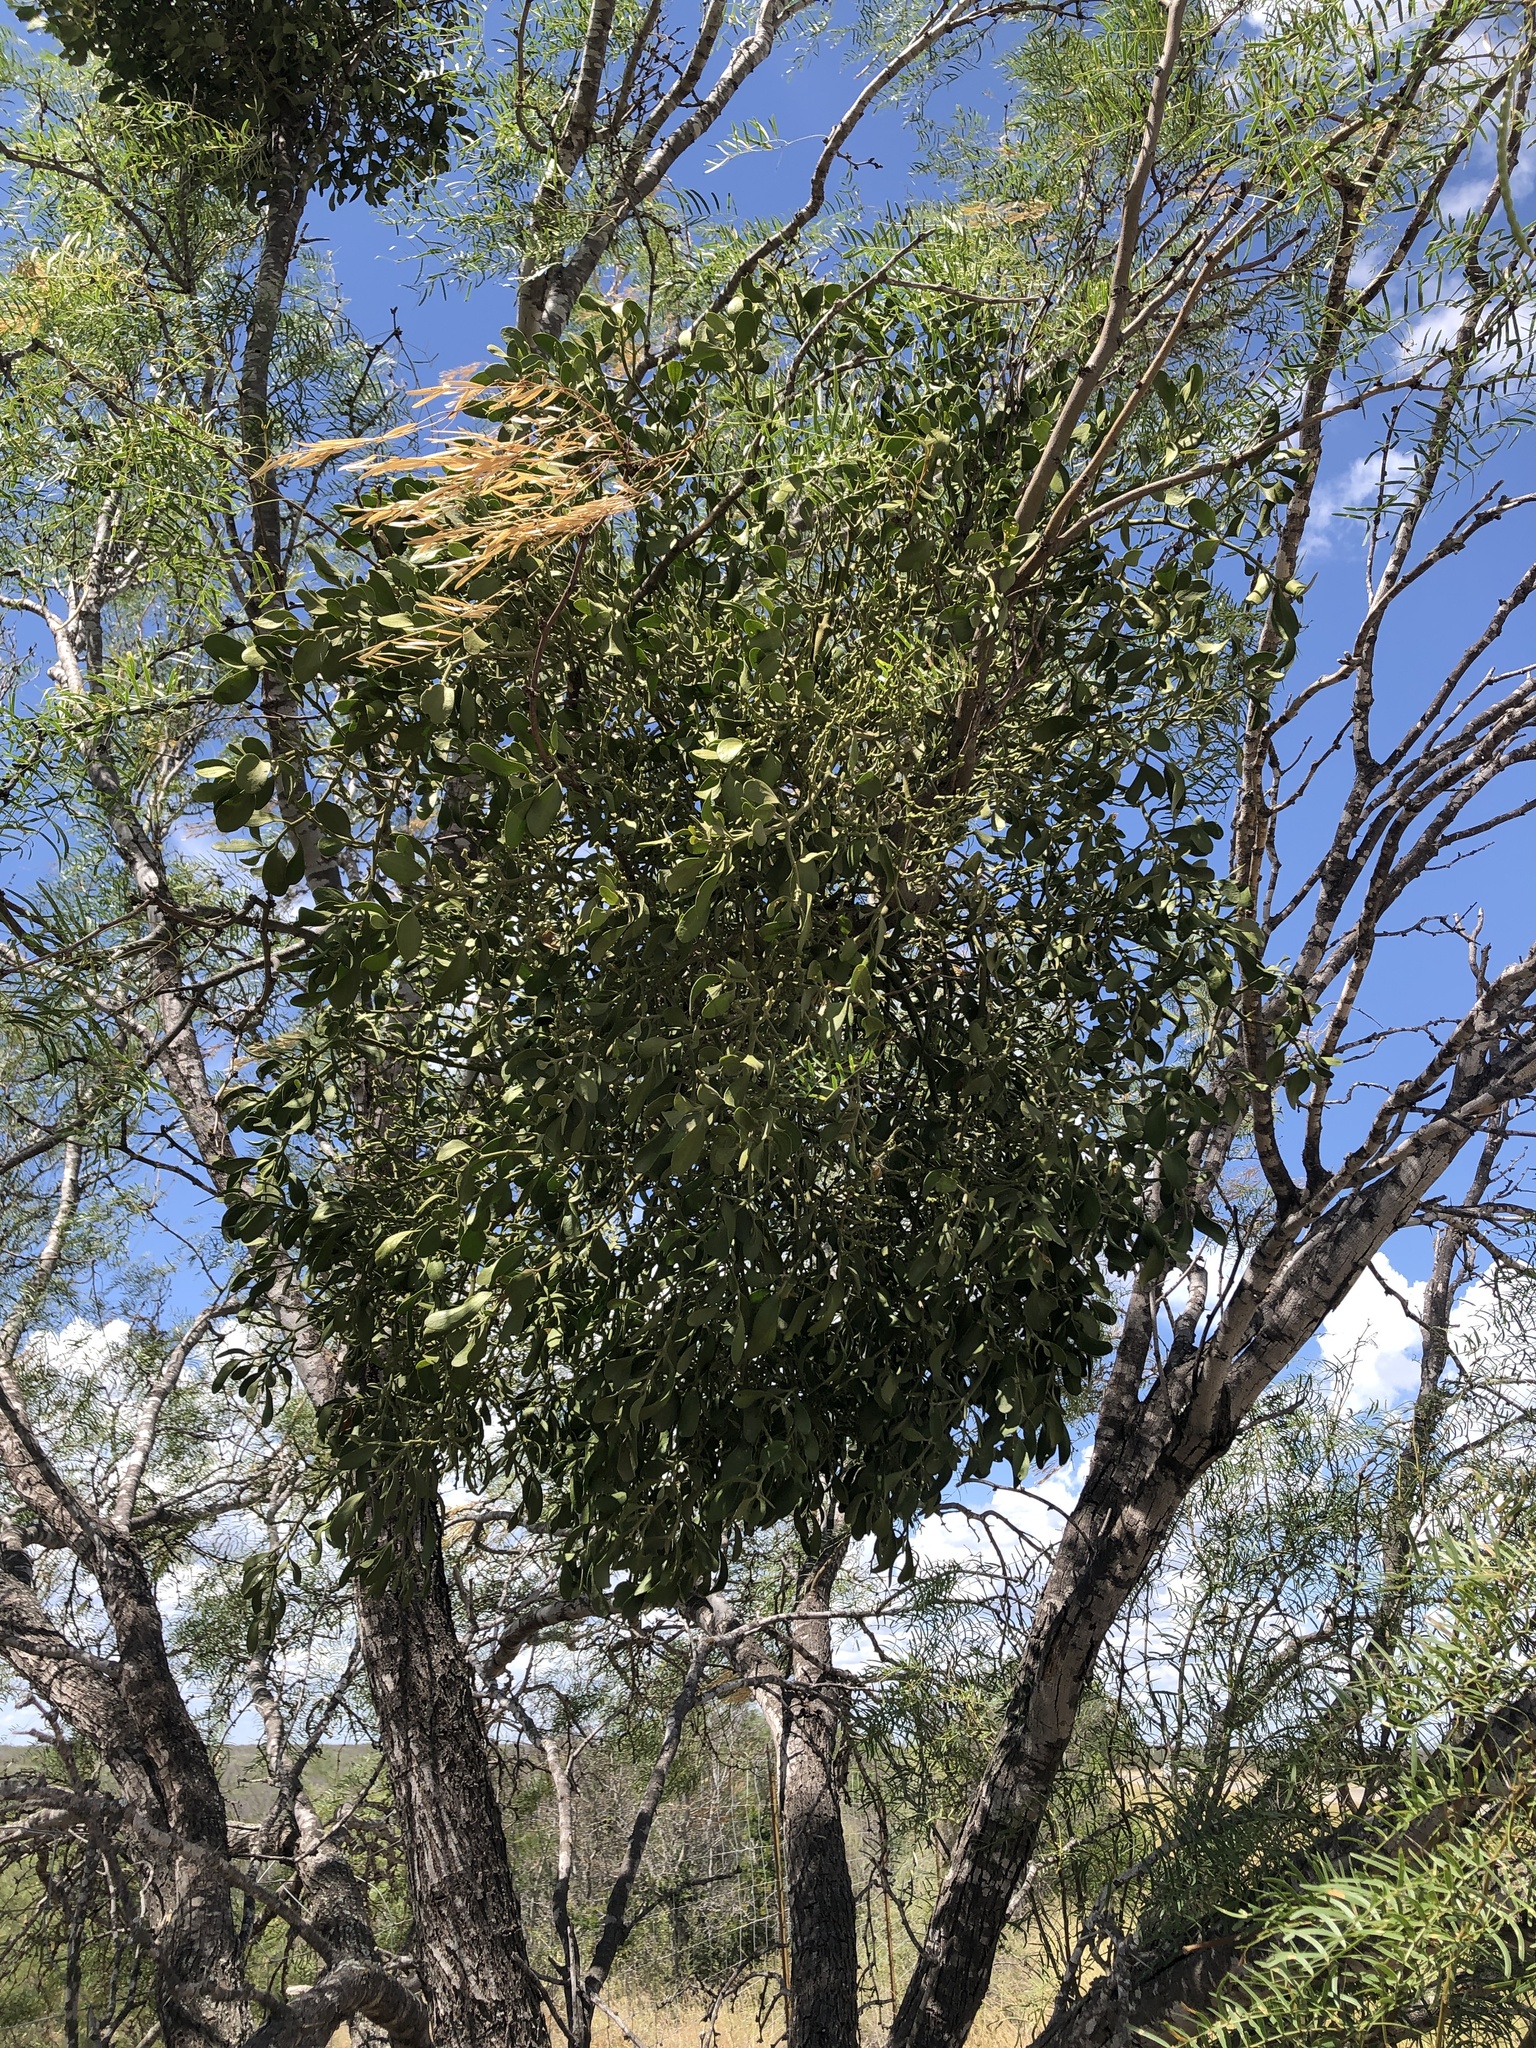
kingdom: Plantae
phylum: Tracheophyta
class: Magnoliopsida
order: Santalales
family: Viscaceae
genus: Phoradendron
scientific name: Phoradendron leucarpum
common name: Pacific mistletoe
